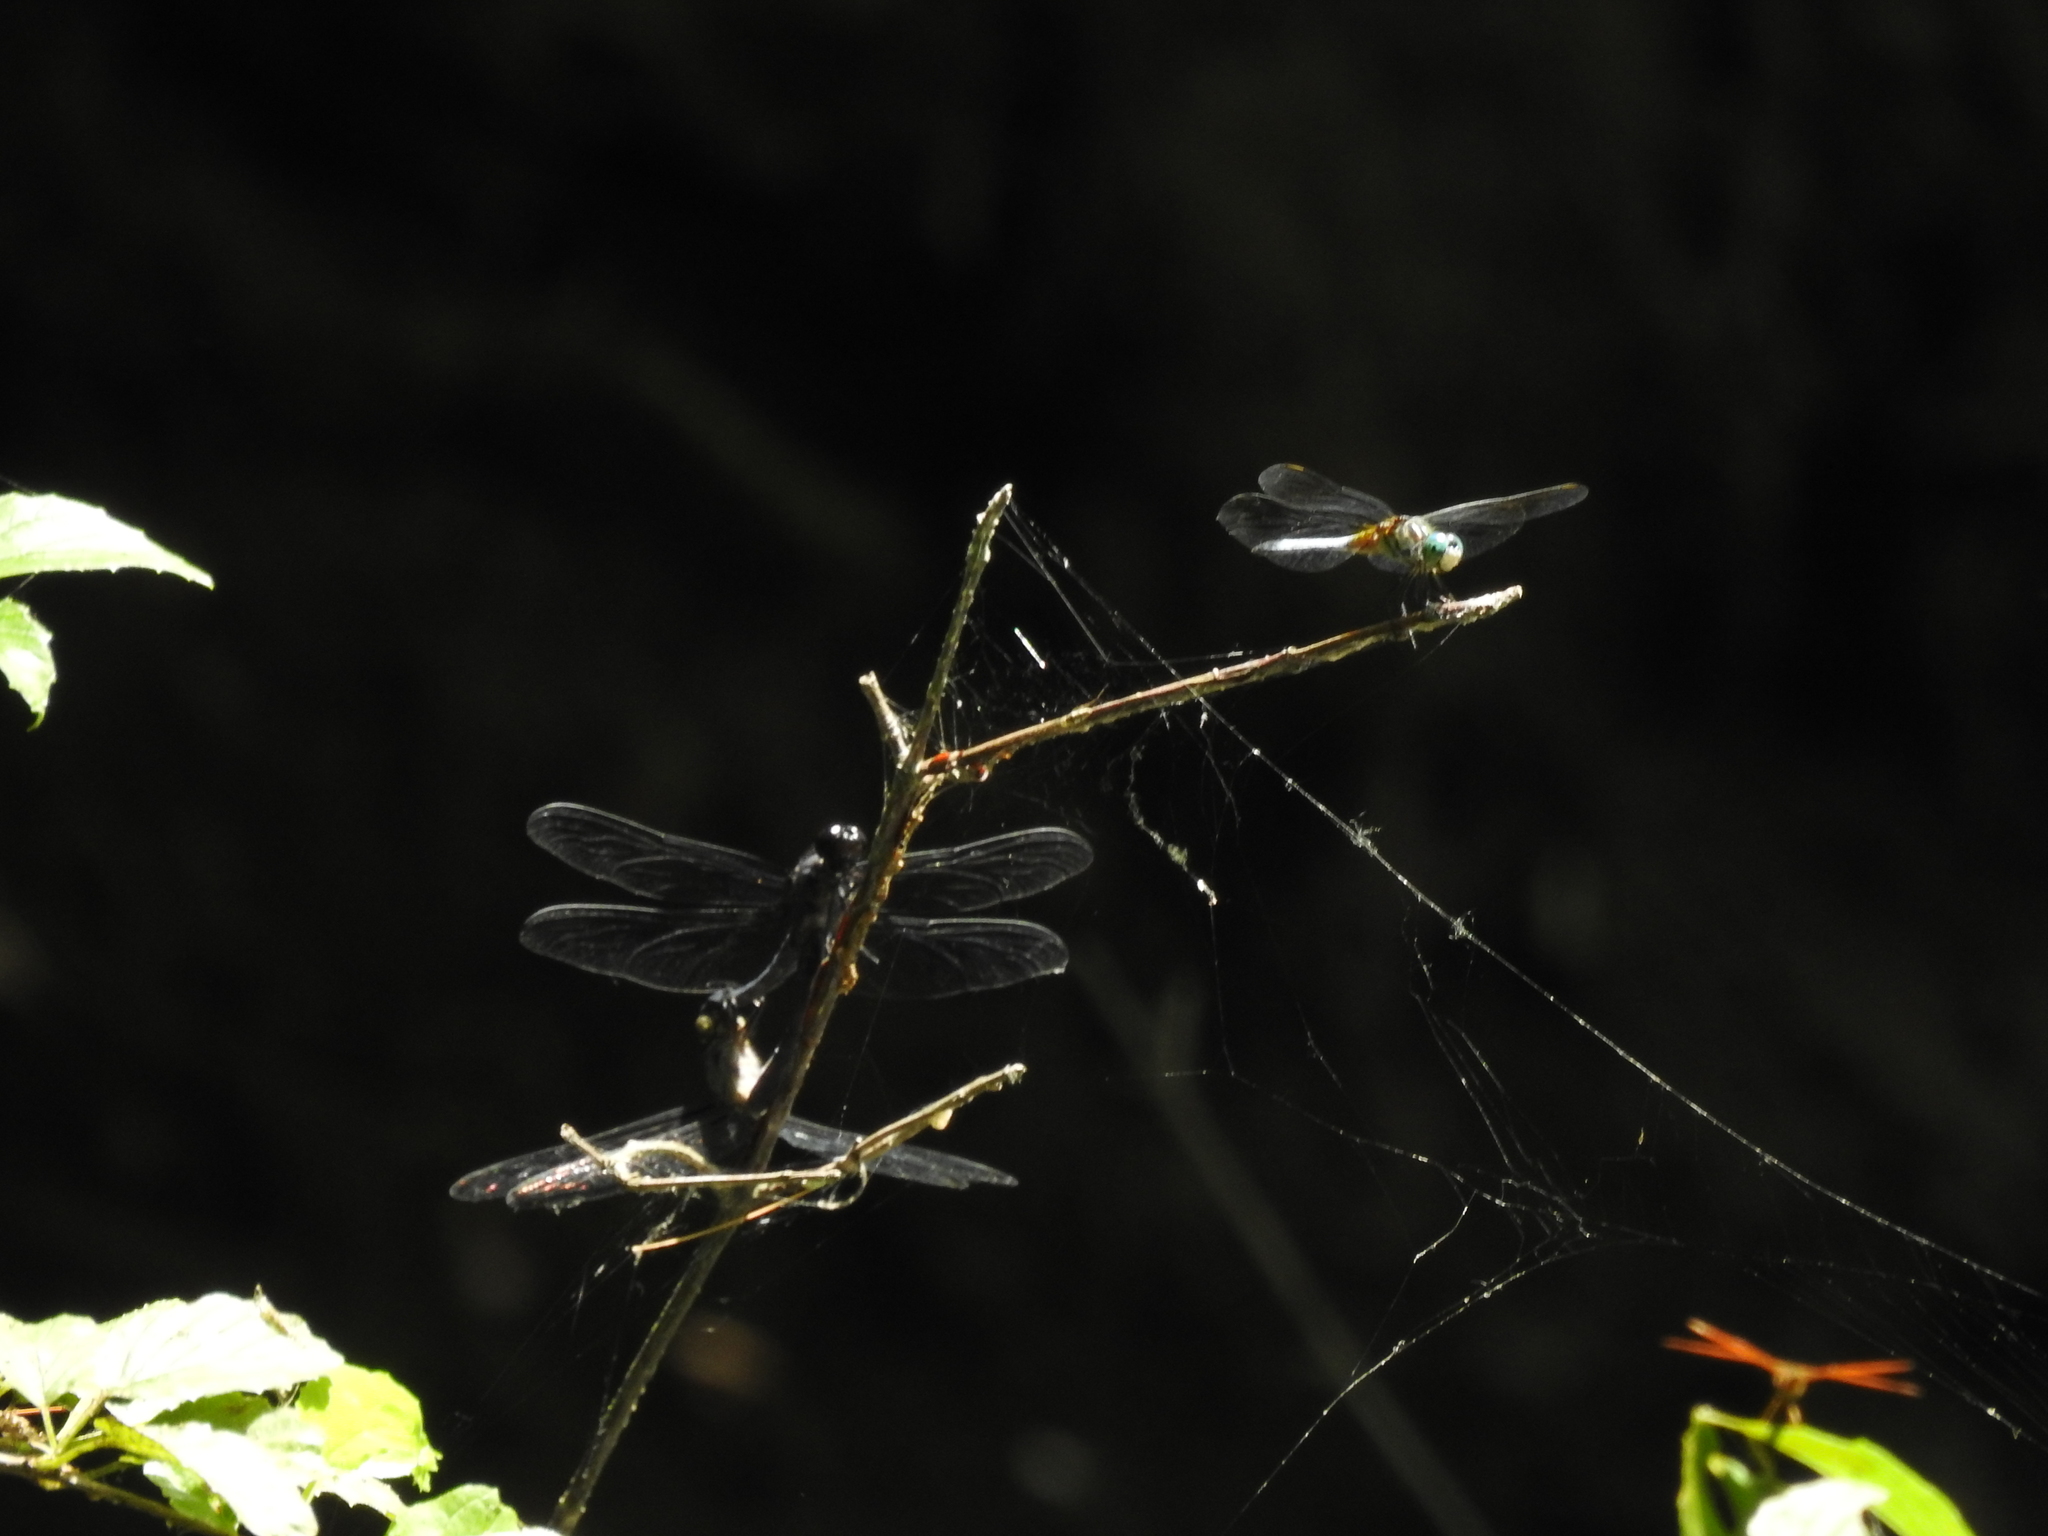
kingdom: Animalia
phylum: Arthropoda
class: Insecta
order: Odonata
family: Libellulidae
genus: Pachydiplax
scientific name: Pachydiplax longipennis
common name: Blue dasher
